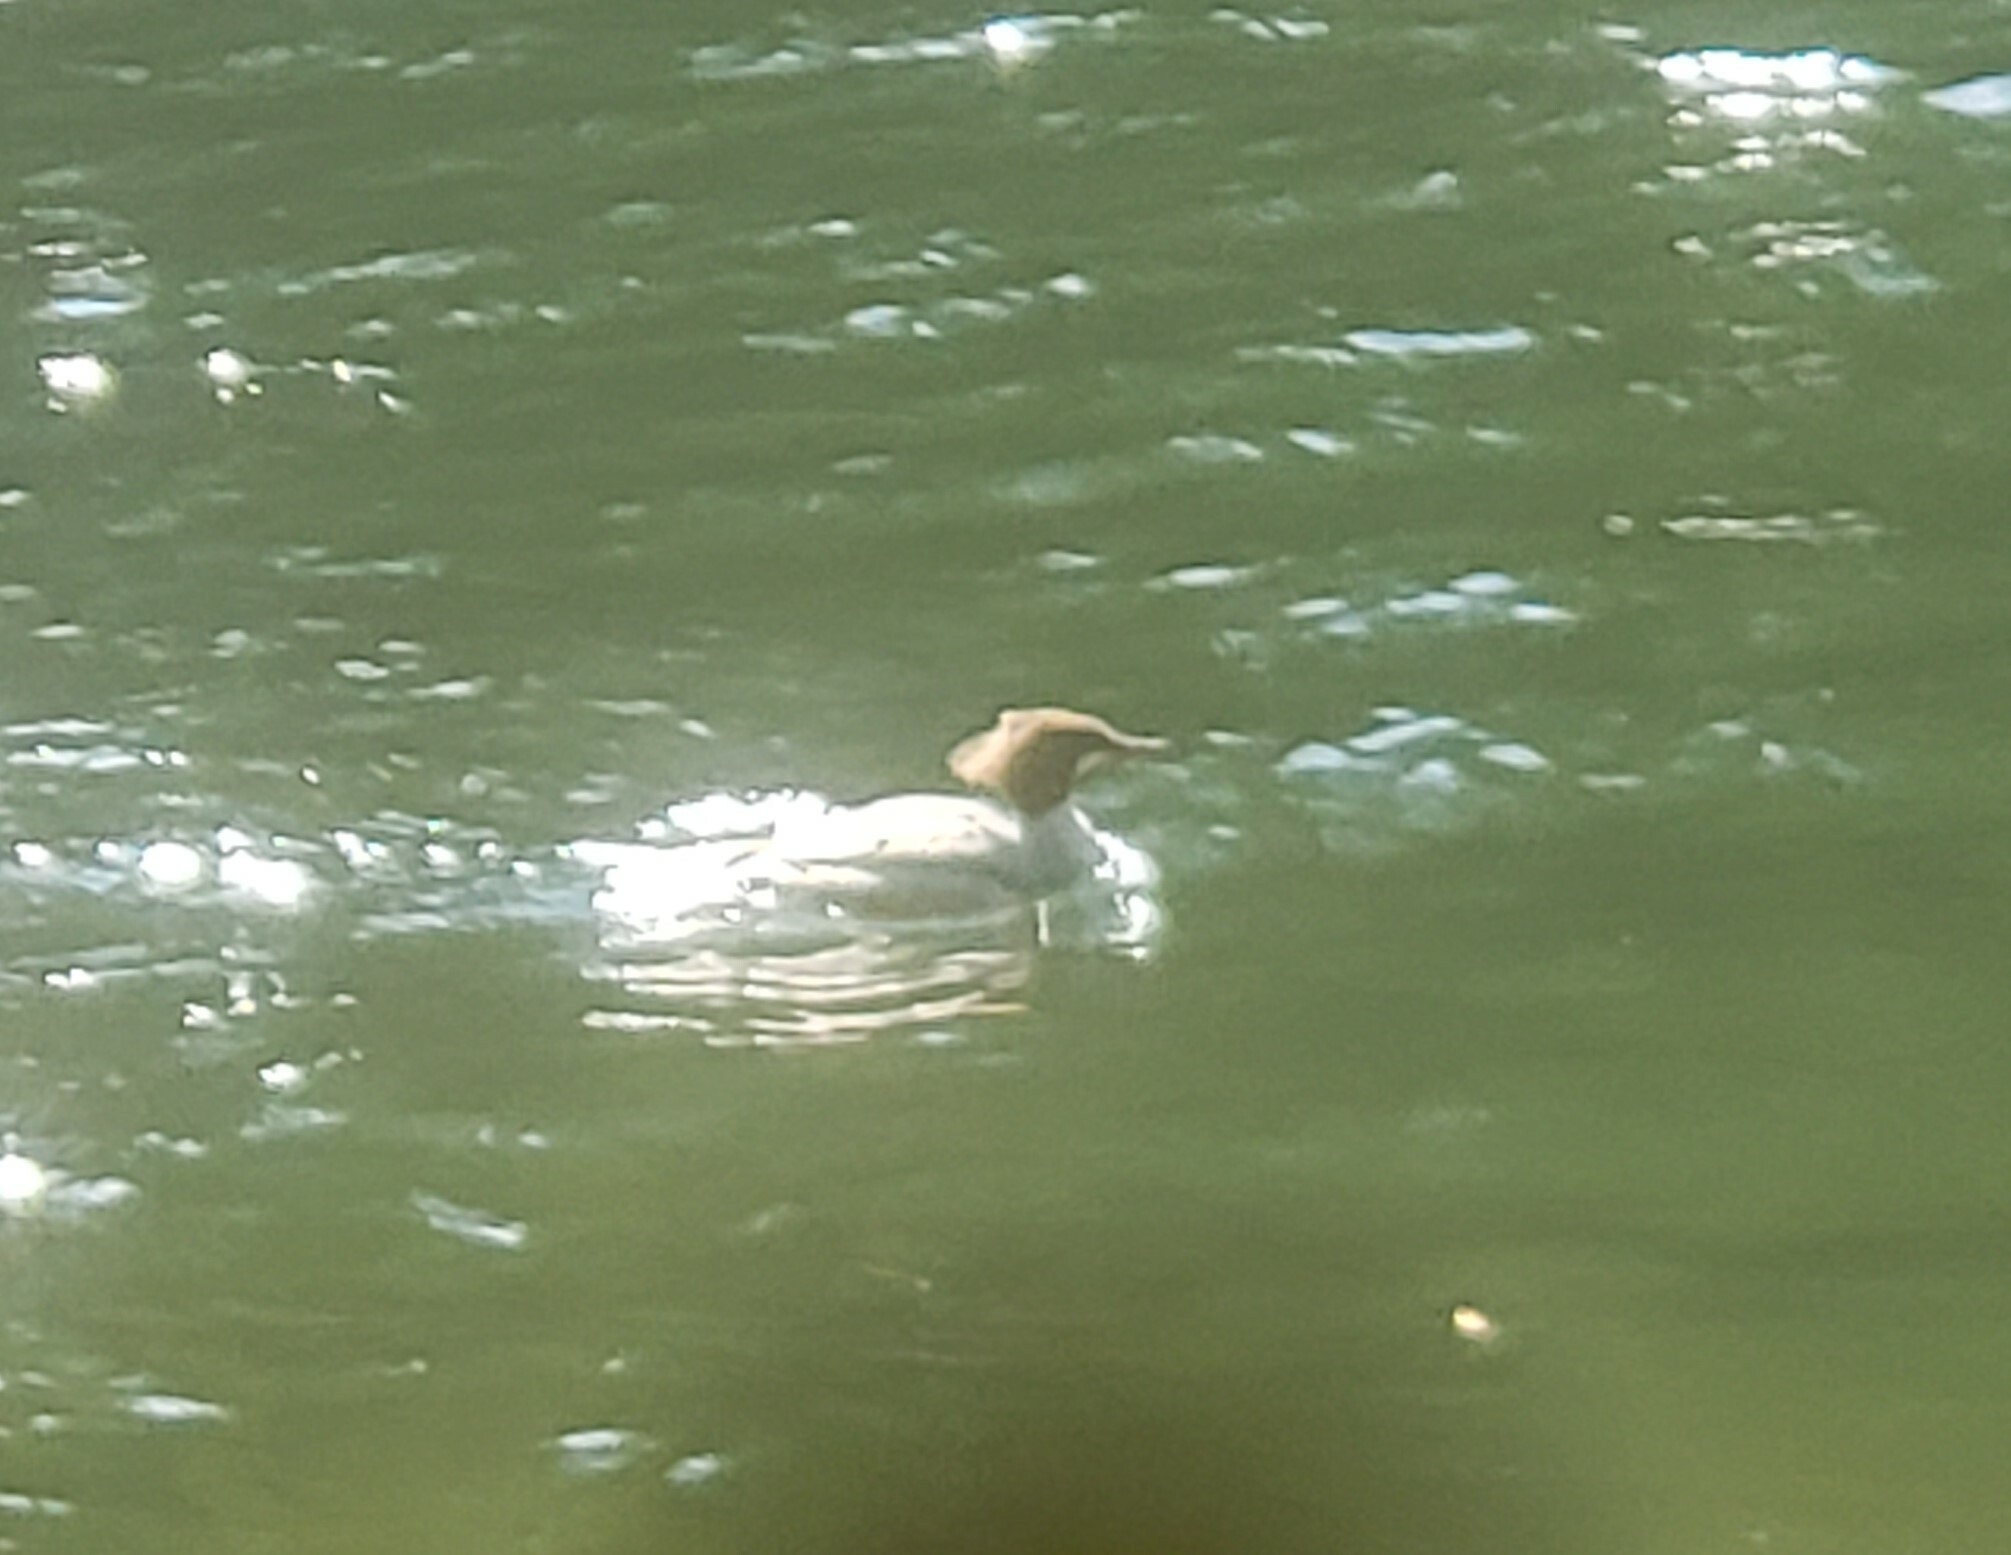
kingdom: Animalia
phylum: Chordata
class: Aves
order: Anseriformes
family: Anatidae
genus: Mergus
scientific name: Mergus merganser
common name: Common merganser
